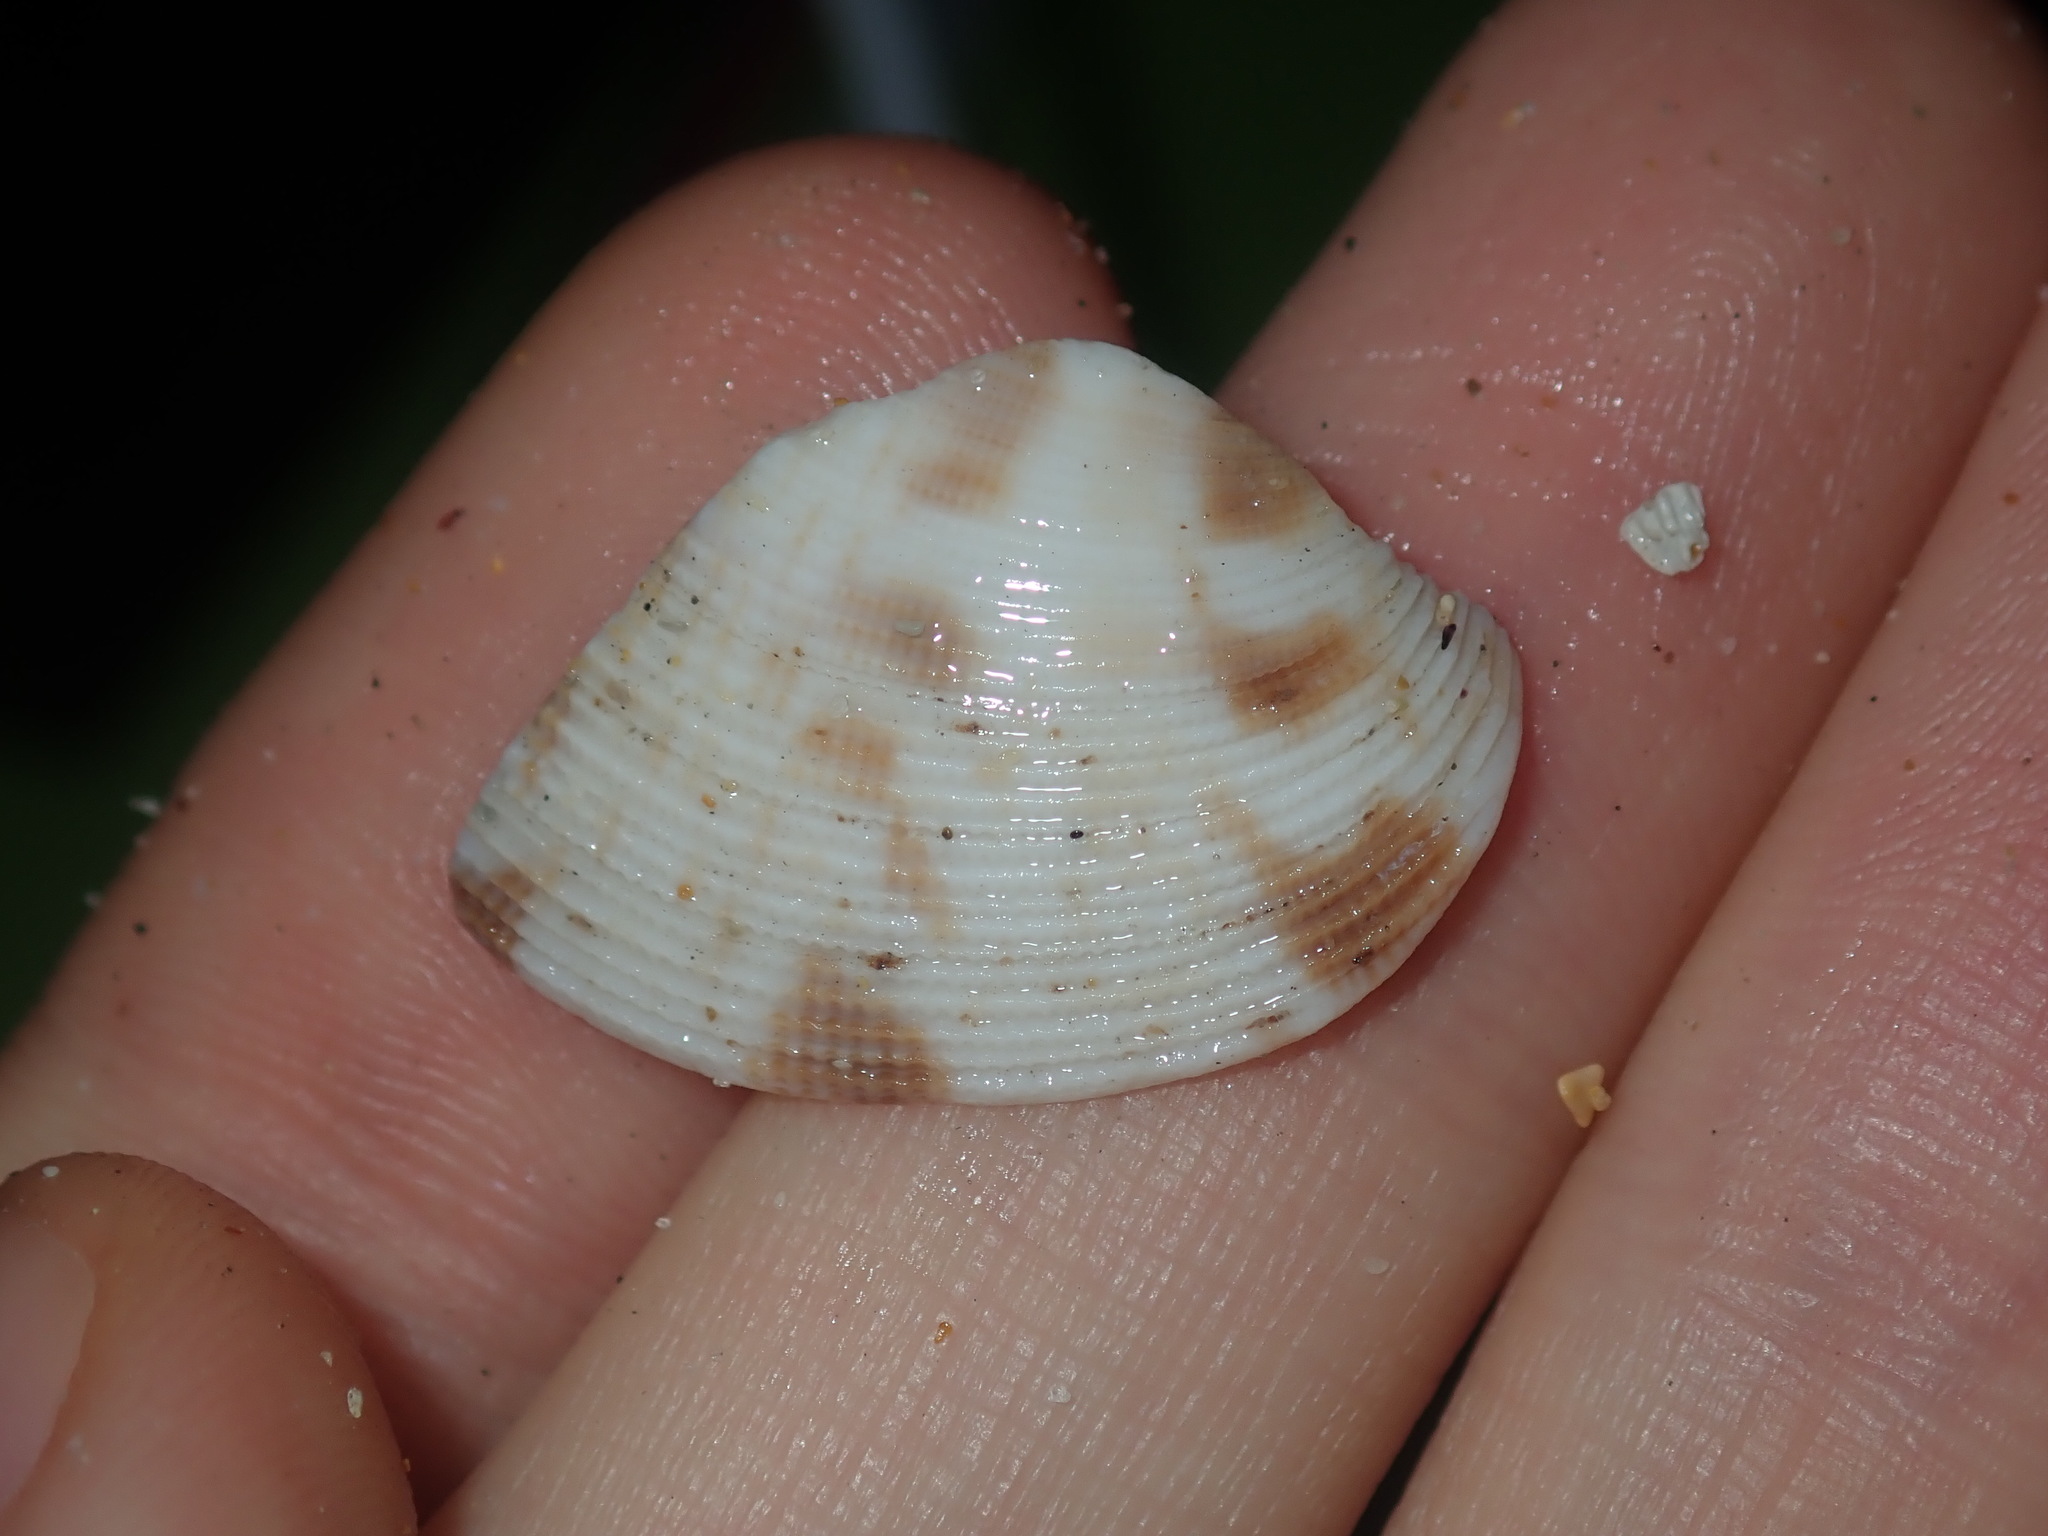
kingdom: Animalia
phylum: Mollusca
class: Bivalvia
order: Venerida
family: Veneridae
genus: Tawera
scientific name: Tawera lagopus
